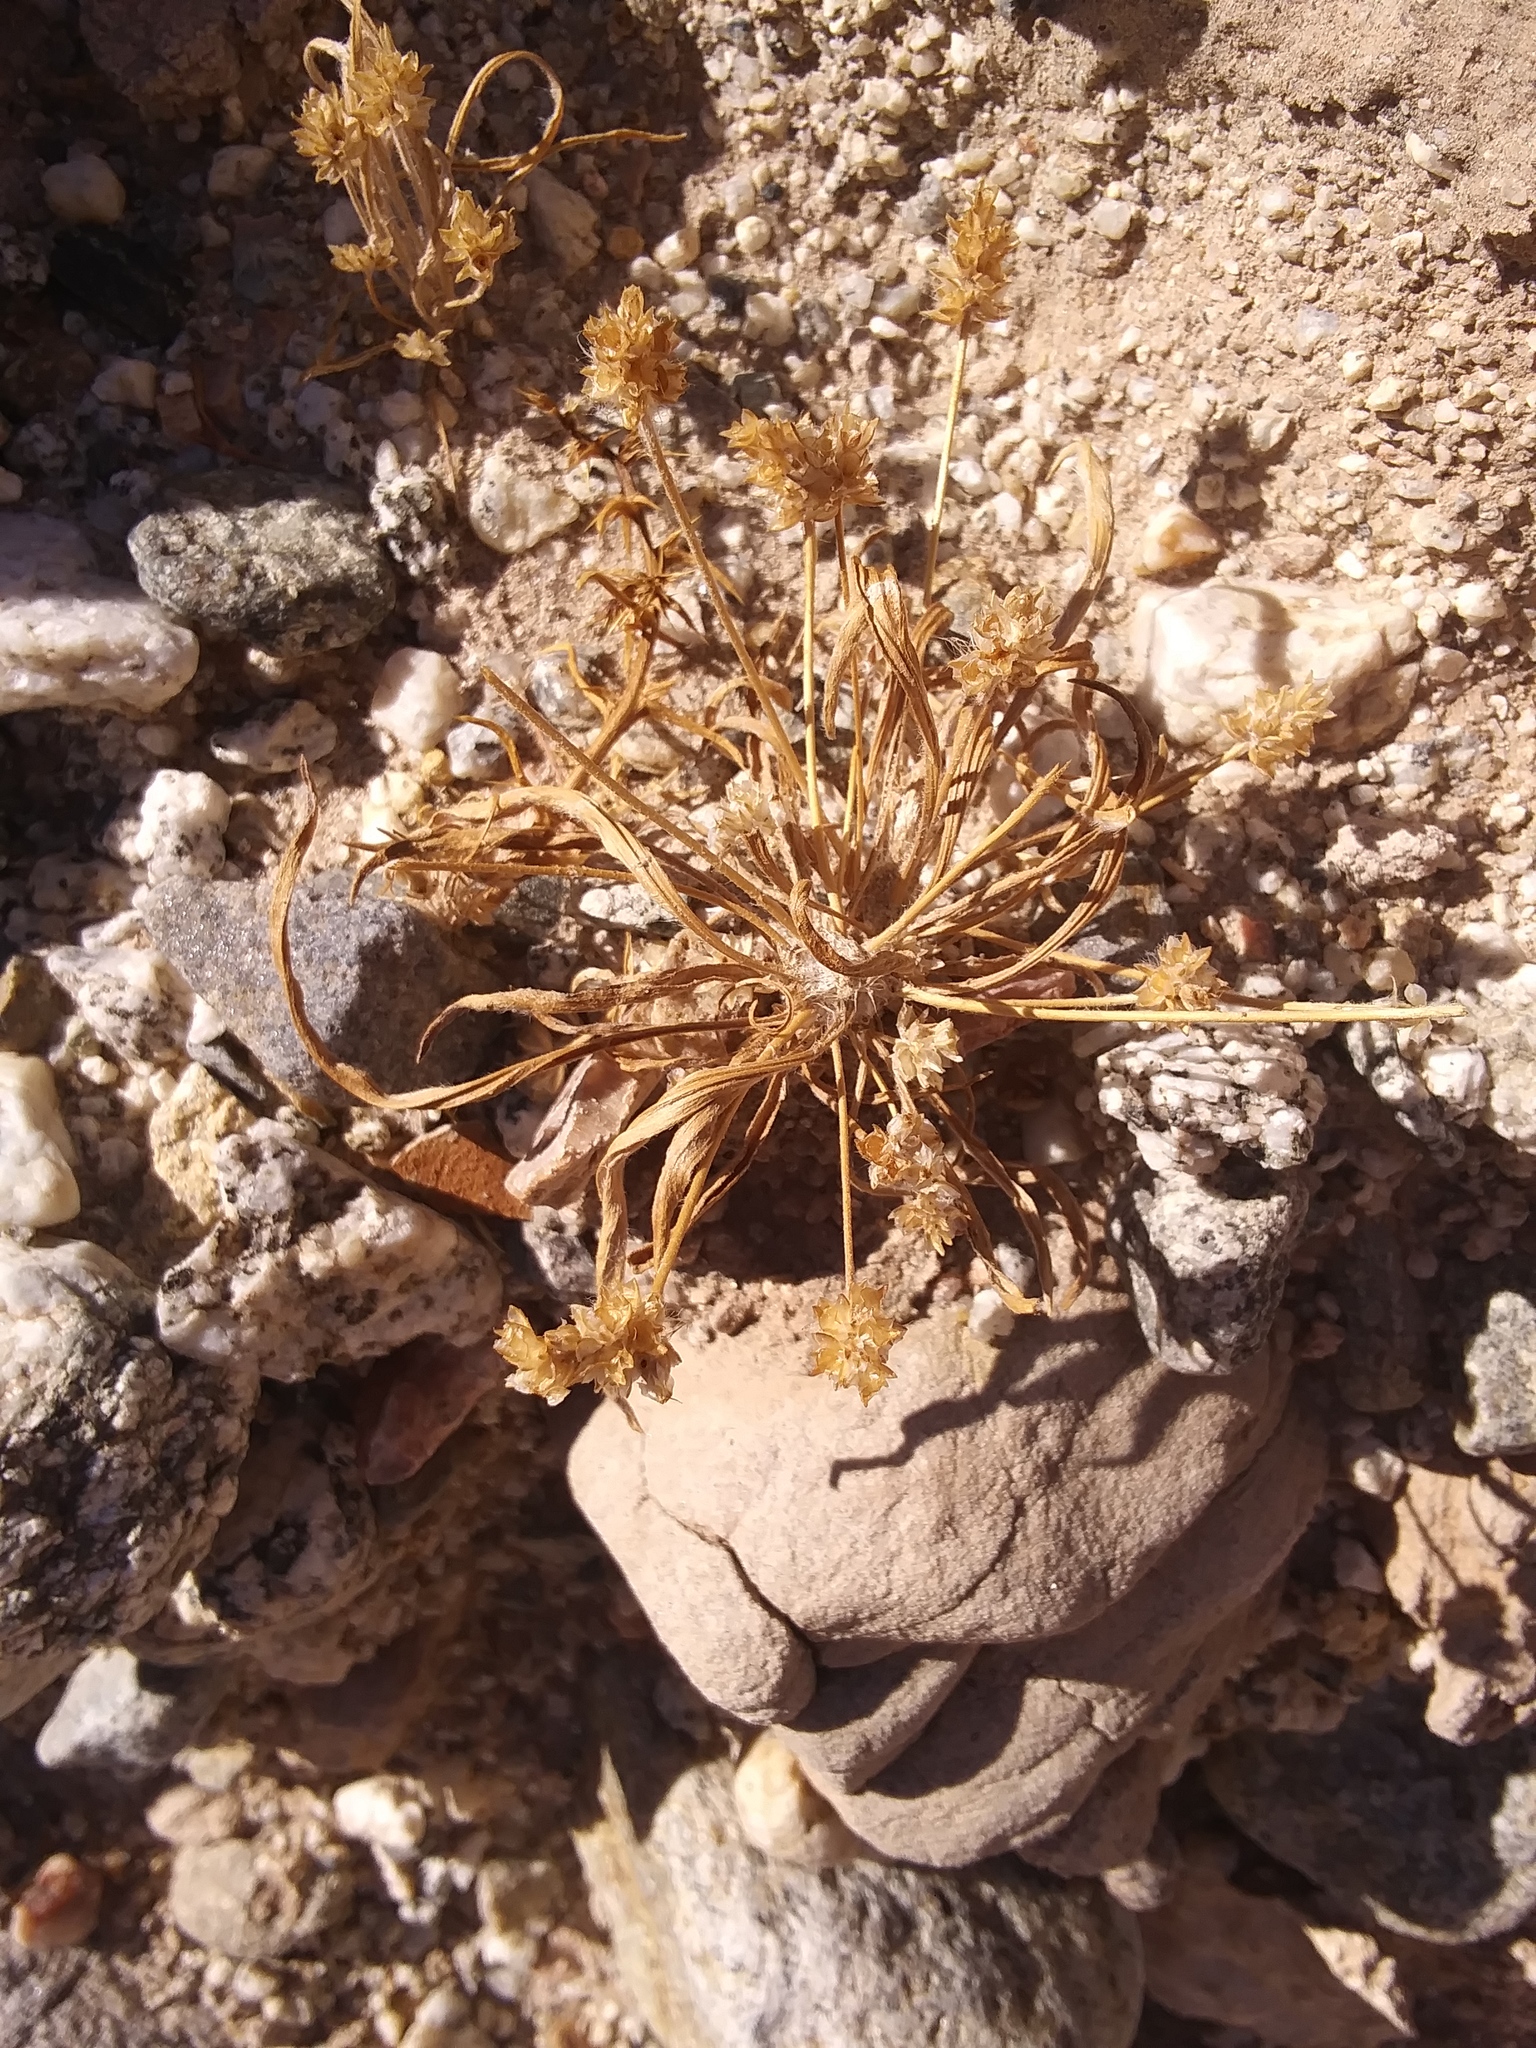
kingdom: Plantae
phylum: Tracheophyta
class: Magnoliopsida
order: Lamiales
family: Plantaginaceae
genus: Plantago
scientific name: Plantago ovata
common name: Blond plantain
